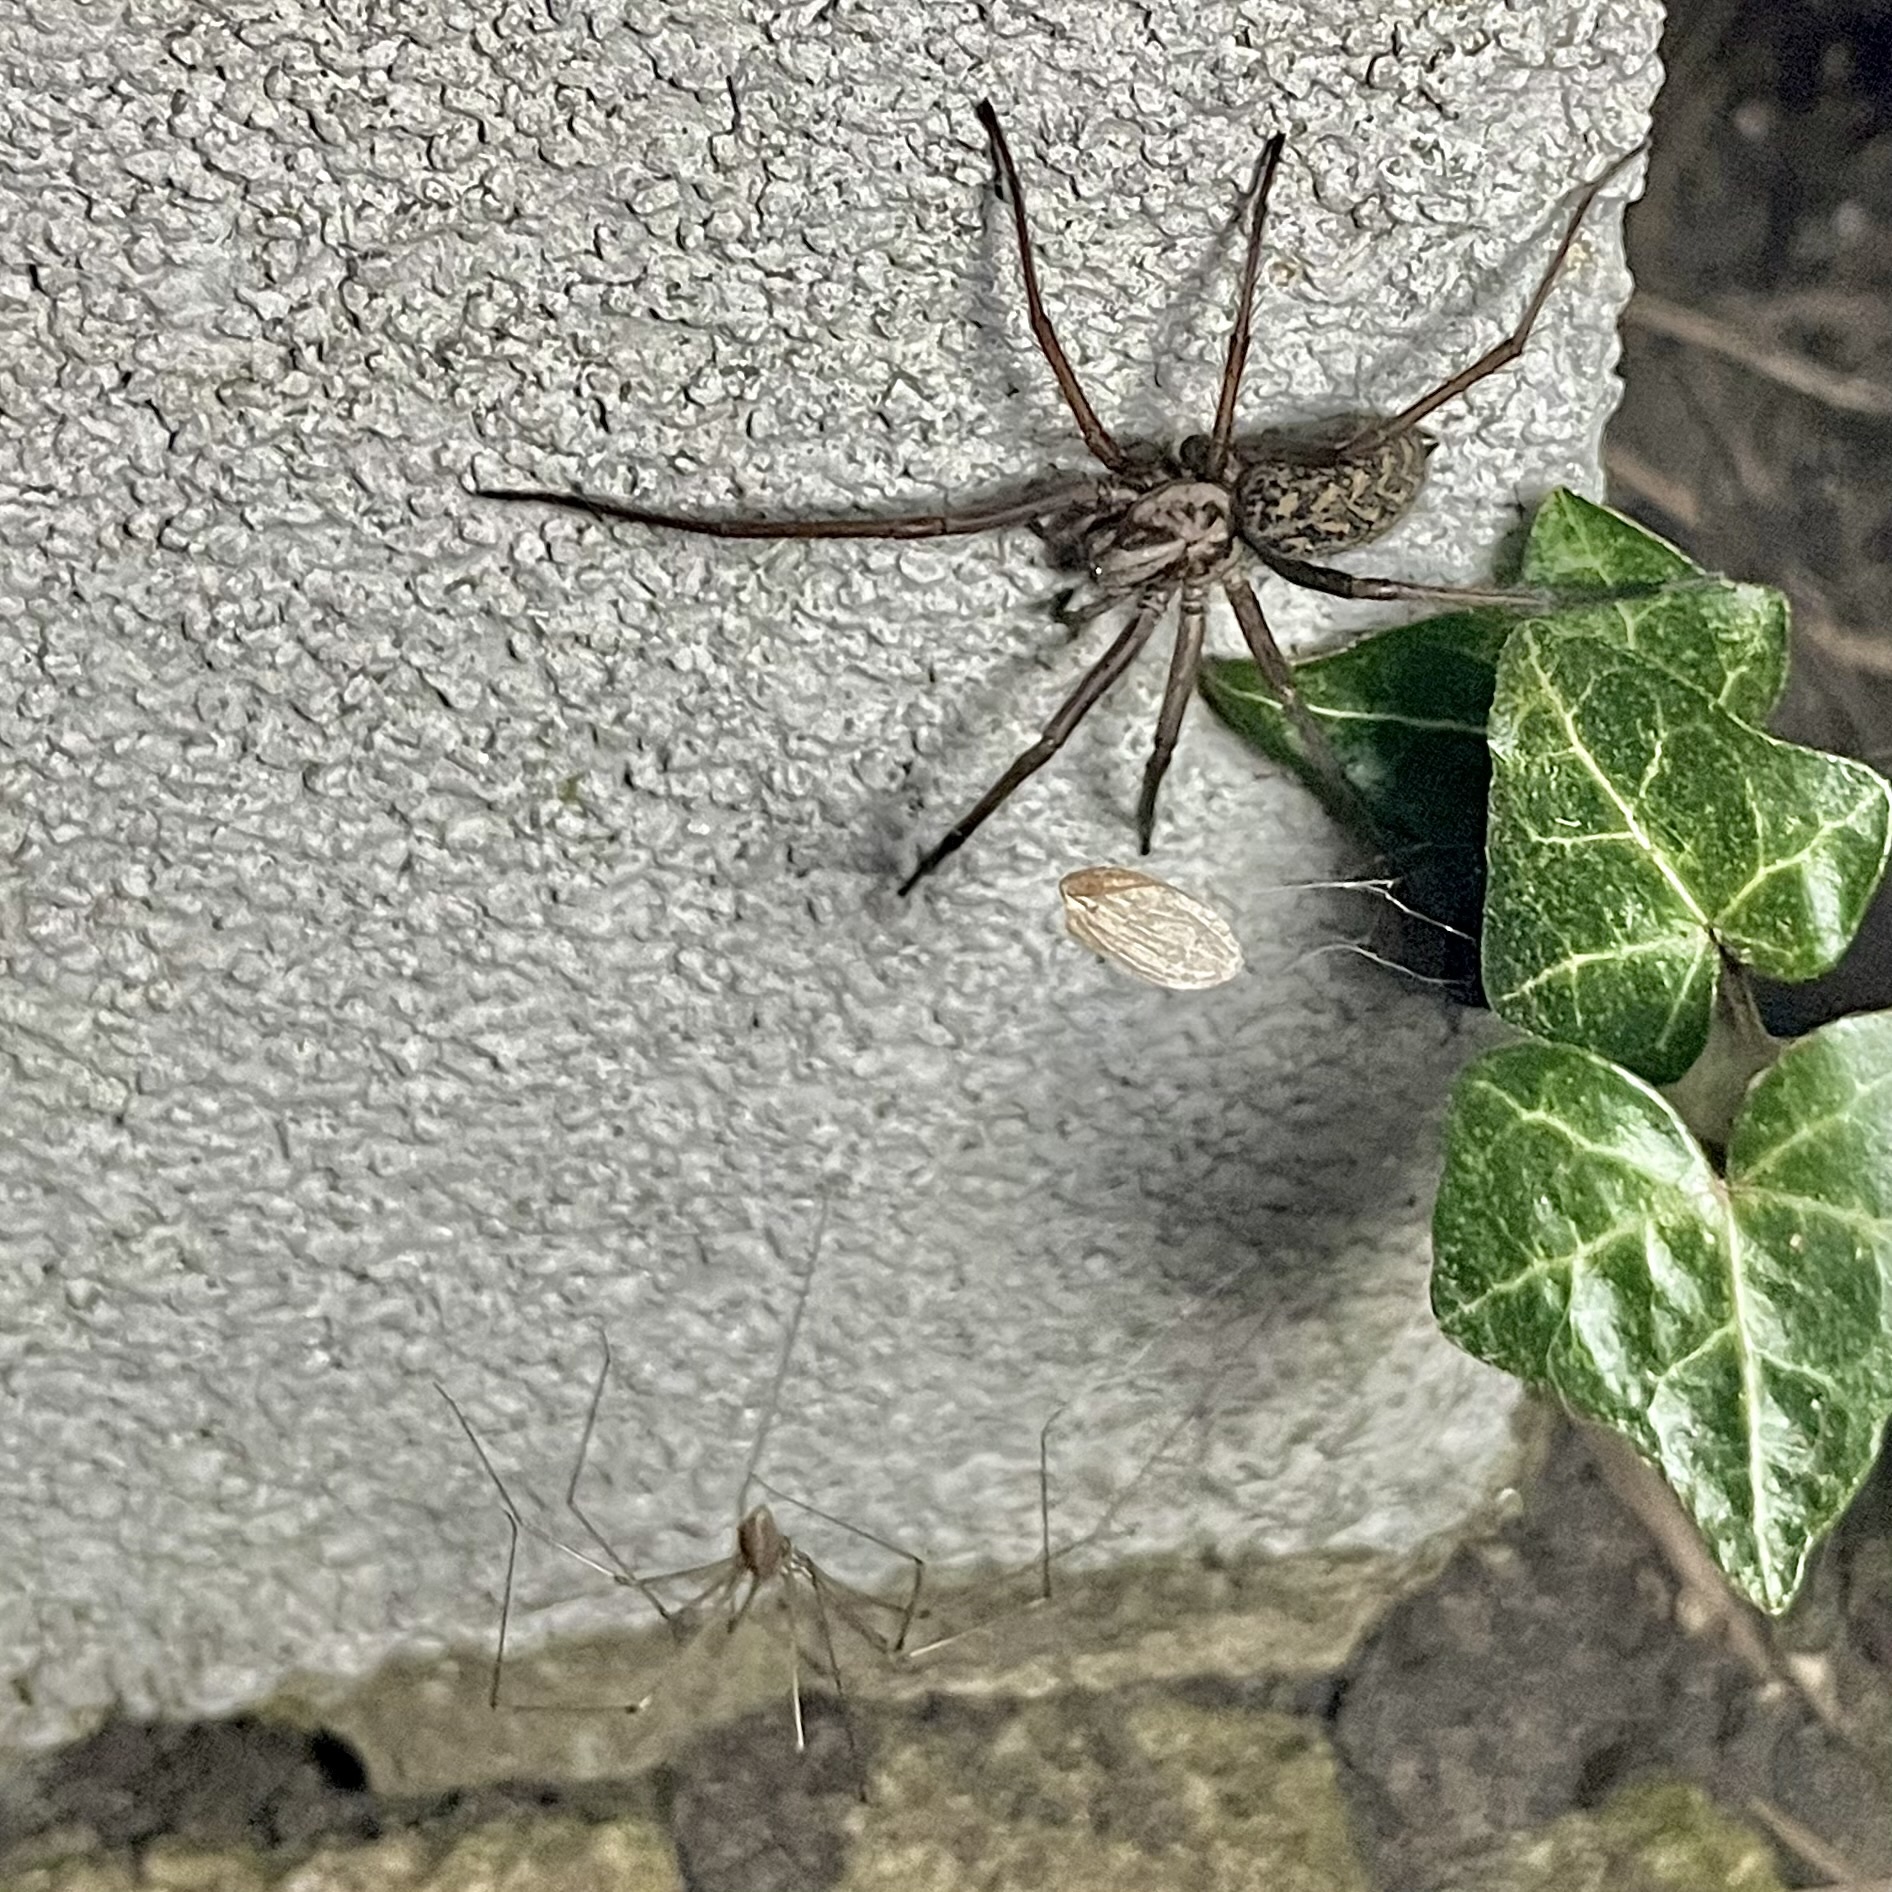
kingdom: Animalia
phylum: Arthropoda
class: Arachnida
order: Araneae
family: Agelenidae
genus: Eratigena
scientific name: Eratigena atrica
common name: Giant house spider
